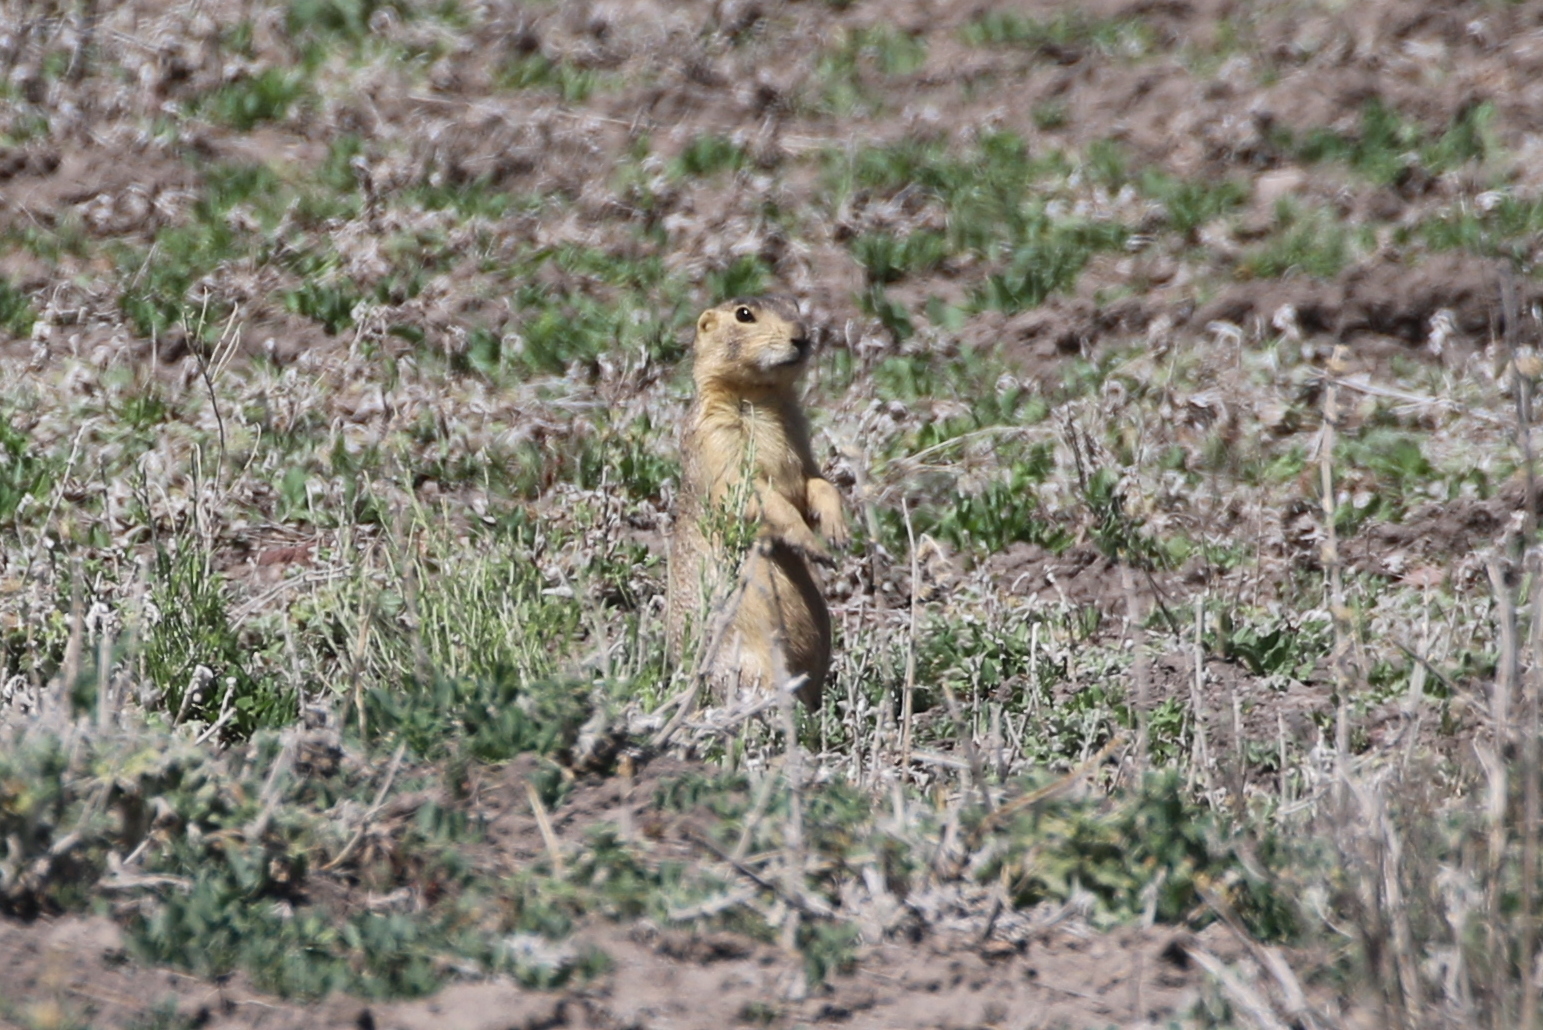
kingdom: Animalia
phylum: Chordata
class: Mammalia
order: Rodentia
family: Sciuridae
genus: Cynomys
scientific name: Cynomys gunnisoni
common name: Gunnison's prairie dog
